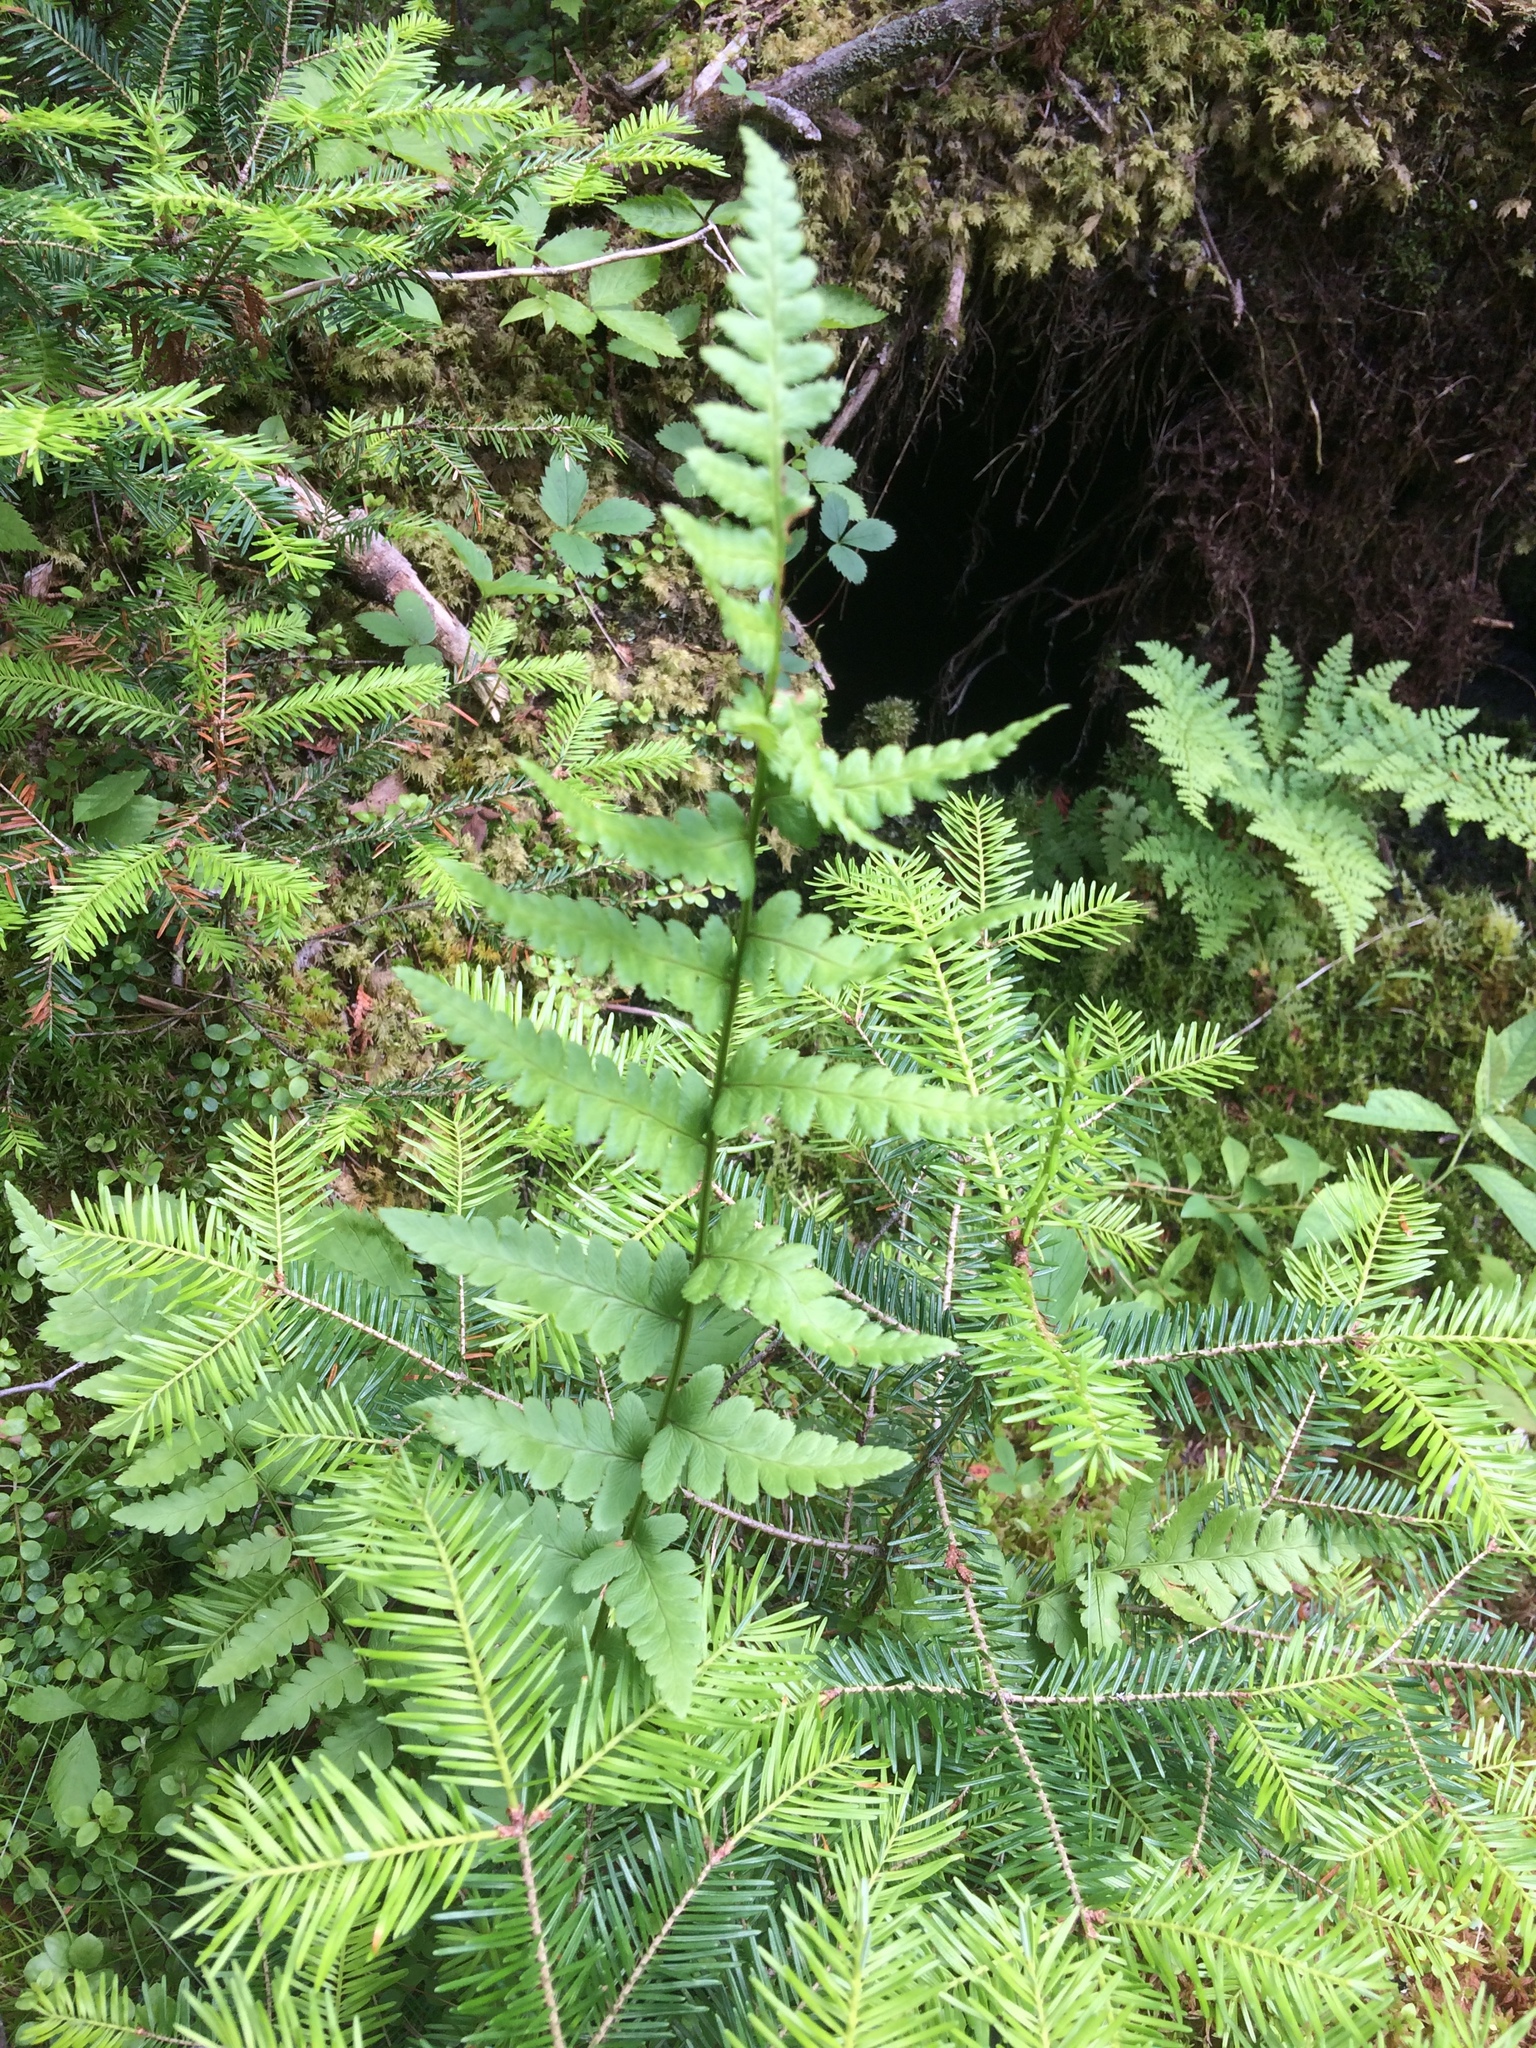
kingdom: Plantae
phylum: Tracheophyta
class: Polypodiopsida
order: Polypodiales
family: Dryopteridaceae
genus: Dryopteris
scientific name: Dryopteris cristata
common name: Crested wood fern
